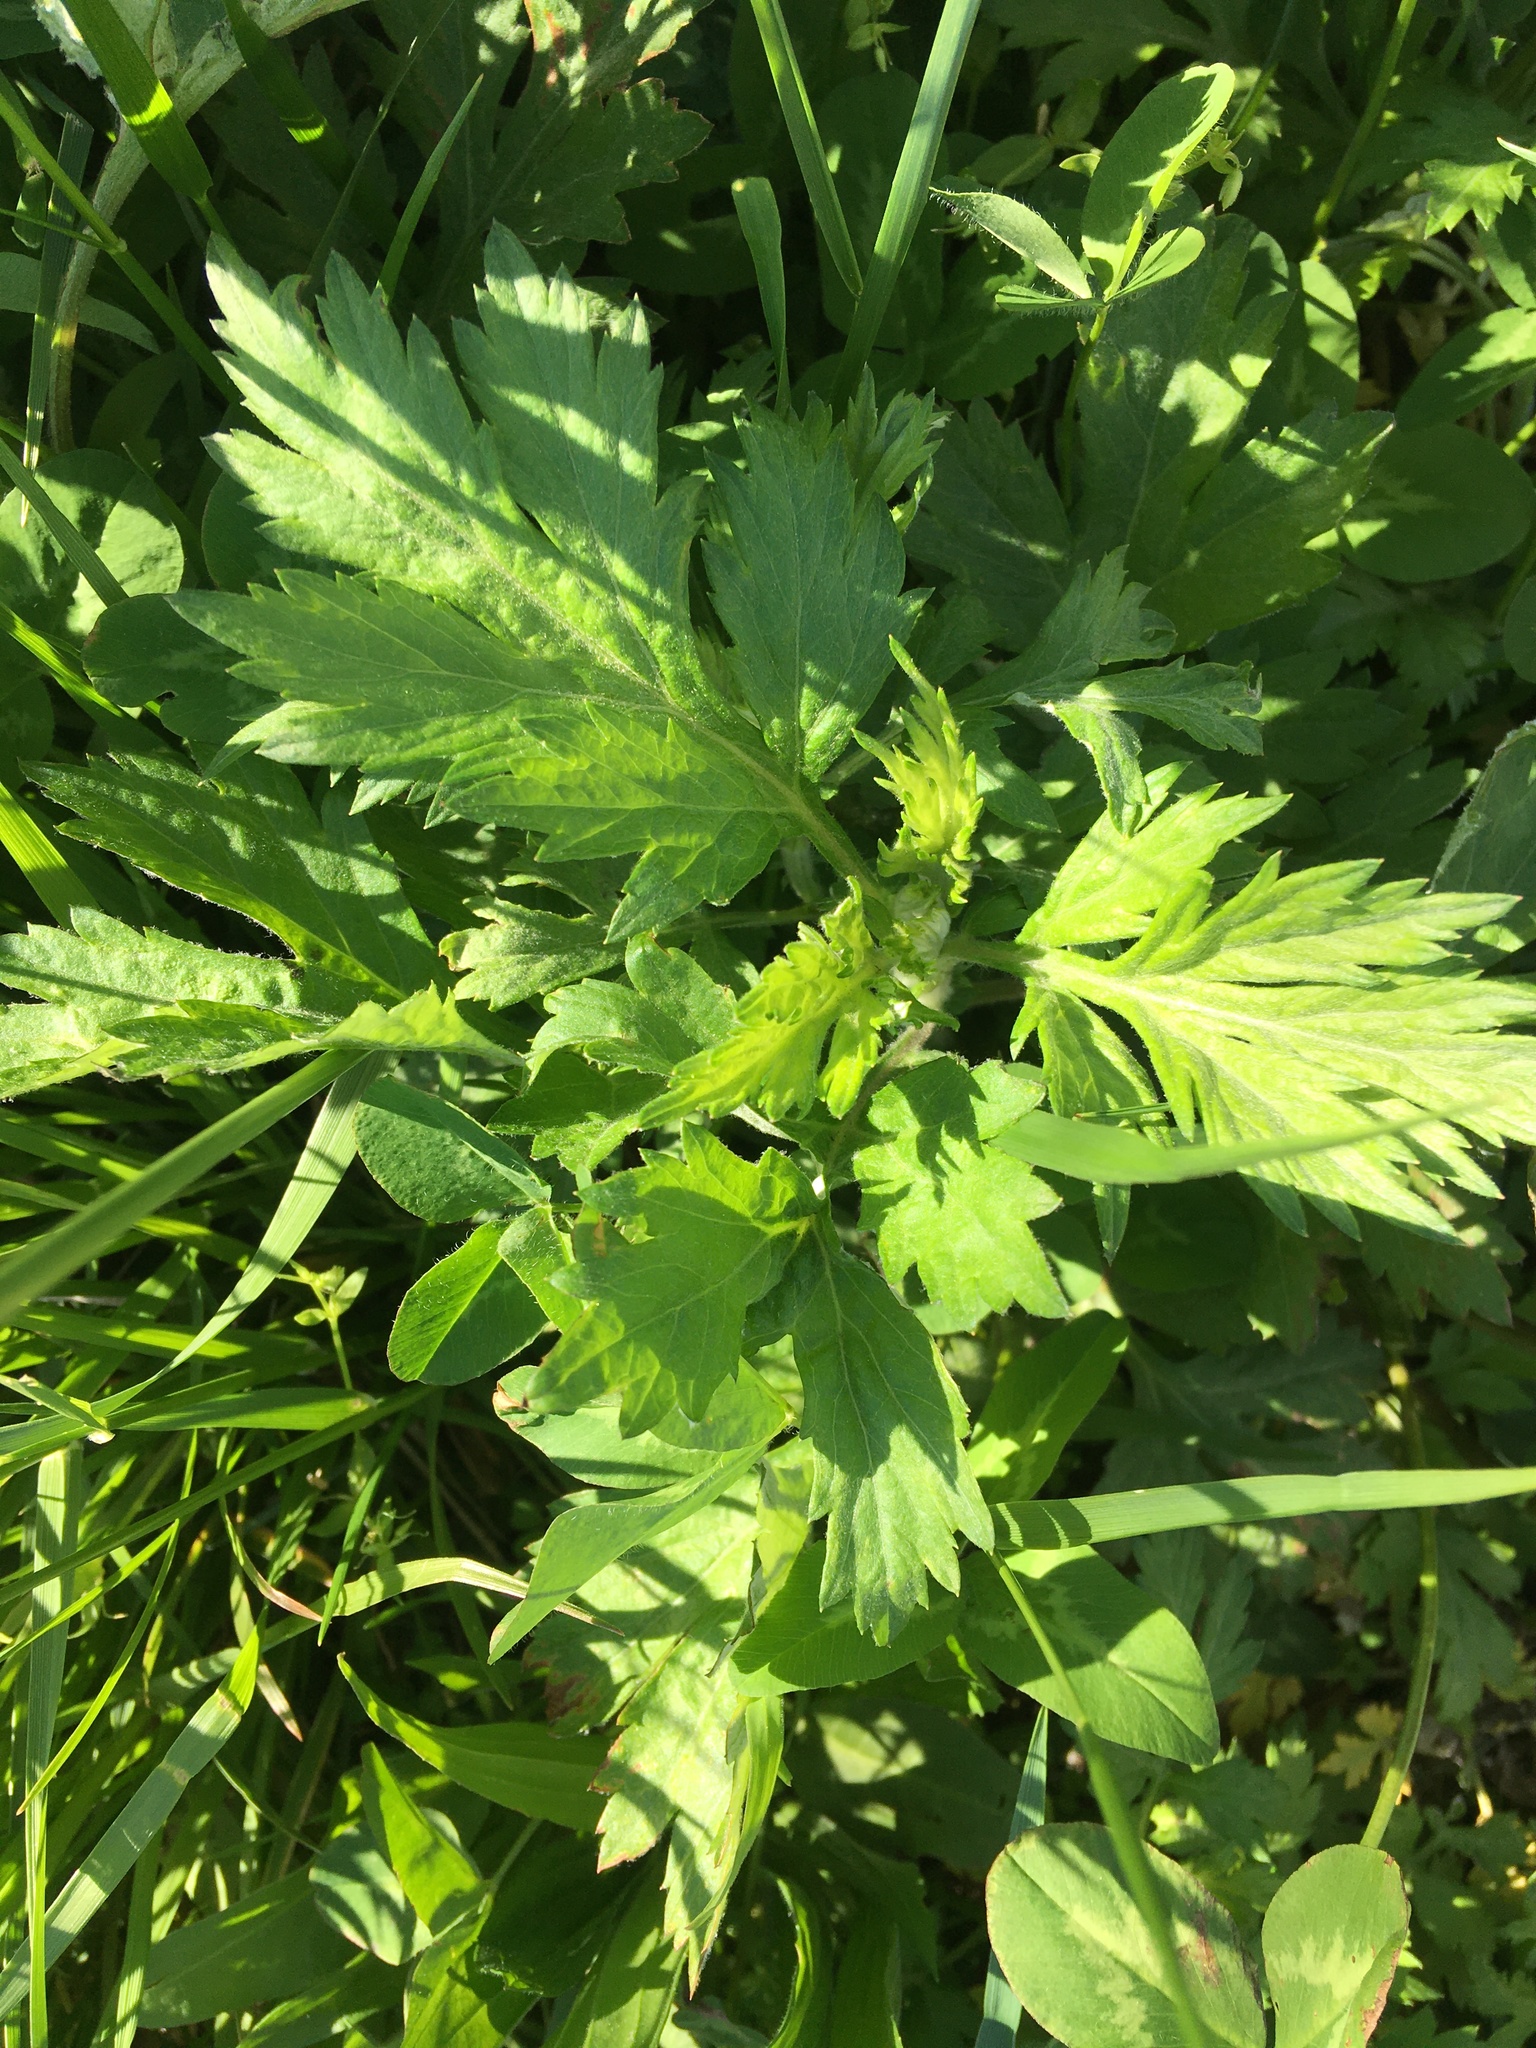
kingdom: Plantae
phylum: Tracheophyta
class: Magnoliopsida
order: Asterales
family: Asteraceae
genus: Artemisia
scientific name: Artemisia vulgaris
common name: Mugwort
